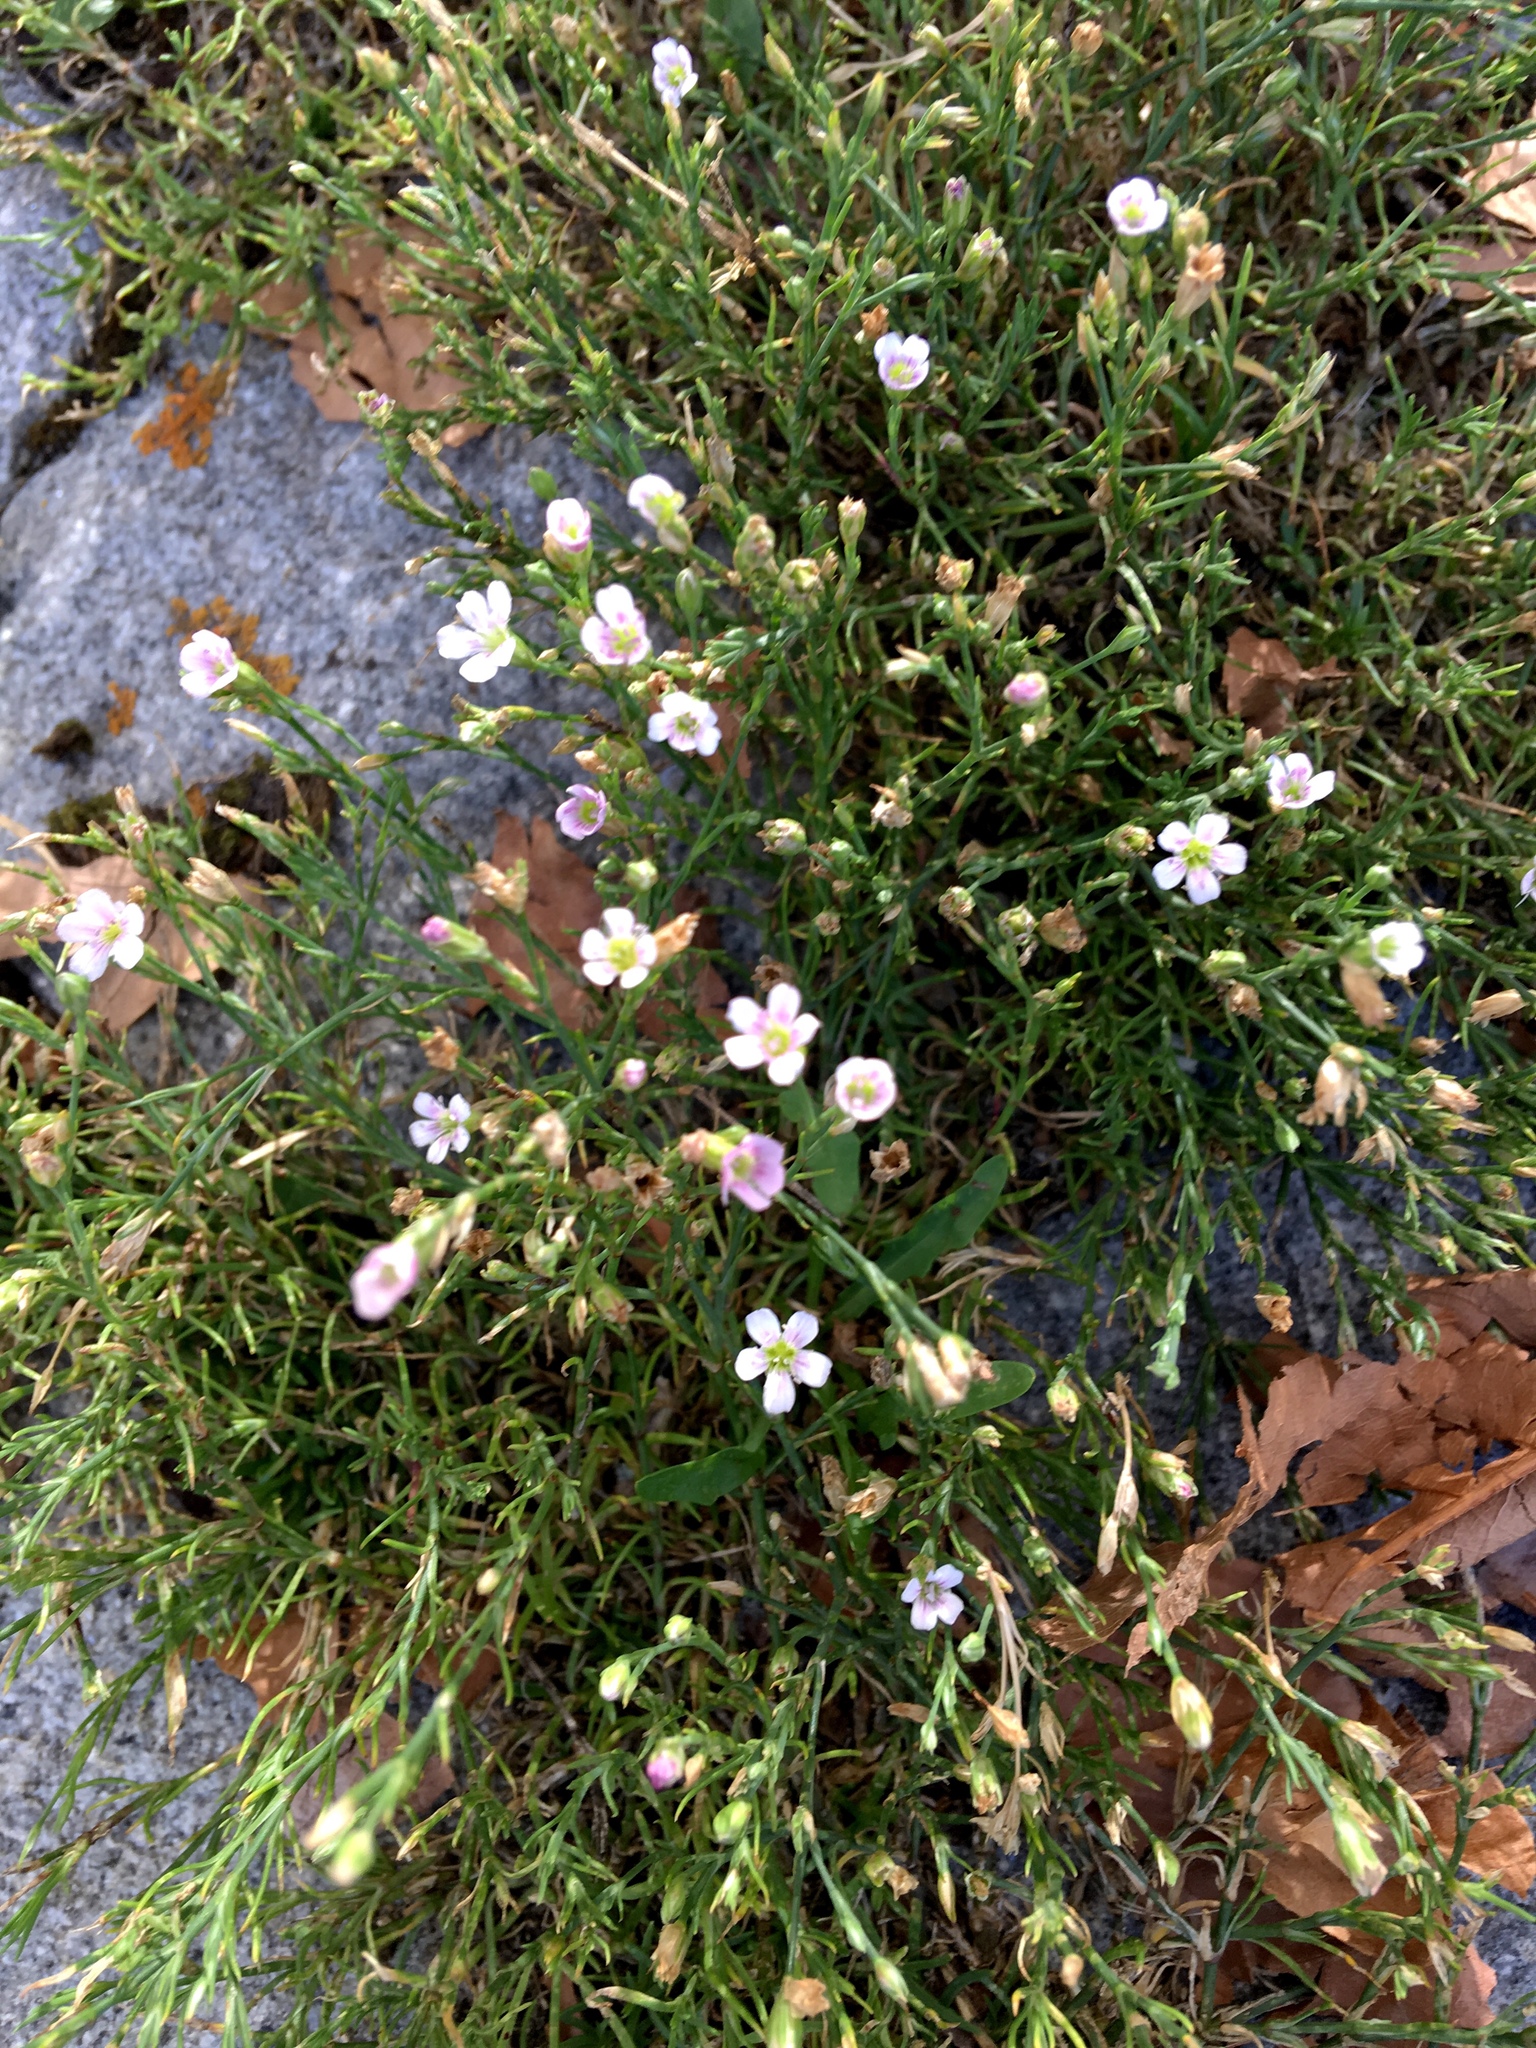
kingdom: Plantae
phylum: Tracheophyta
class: Magnoliopsida
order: Caryophyllales
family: Caryophyllaceae
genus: Petrorhagia
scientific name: Petrorhagia saxifraga
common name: Tunicflower
